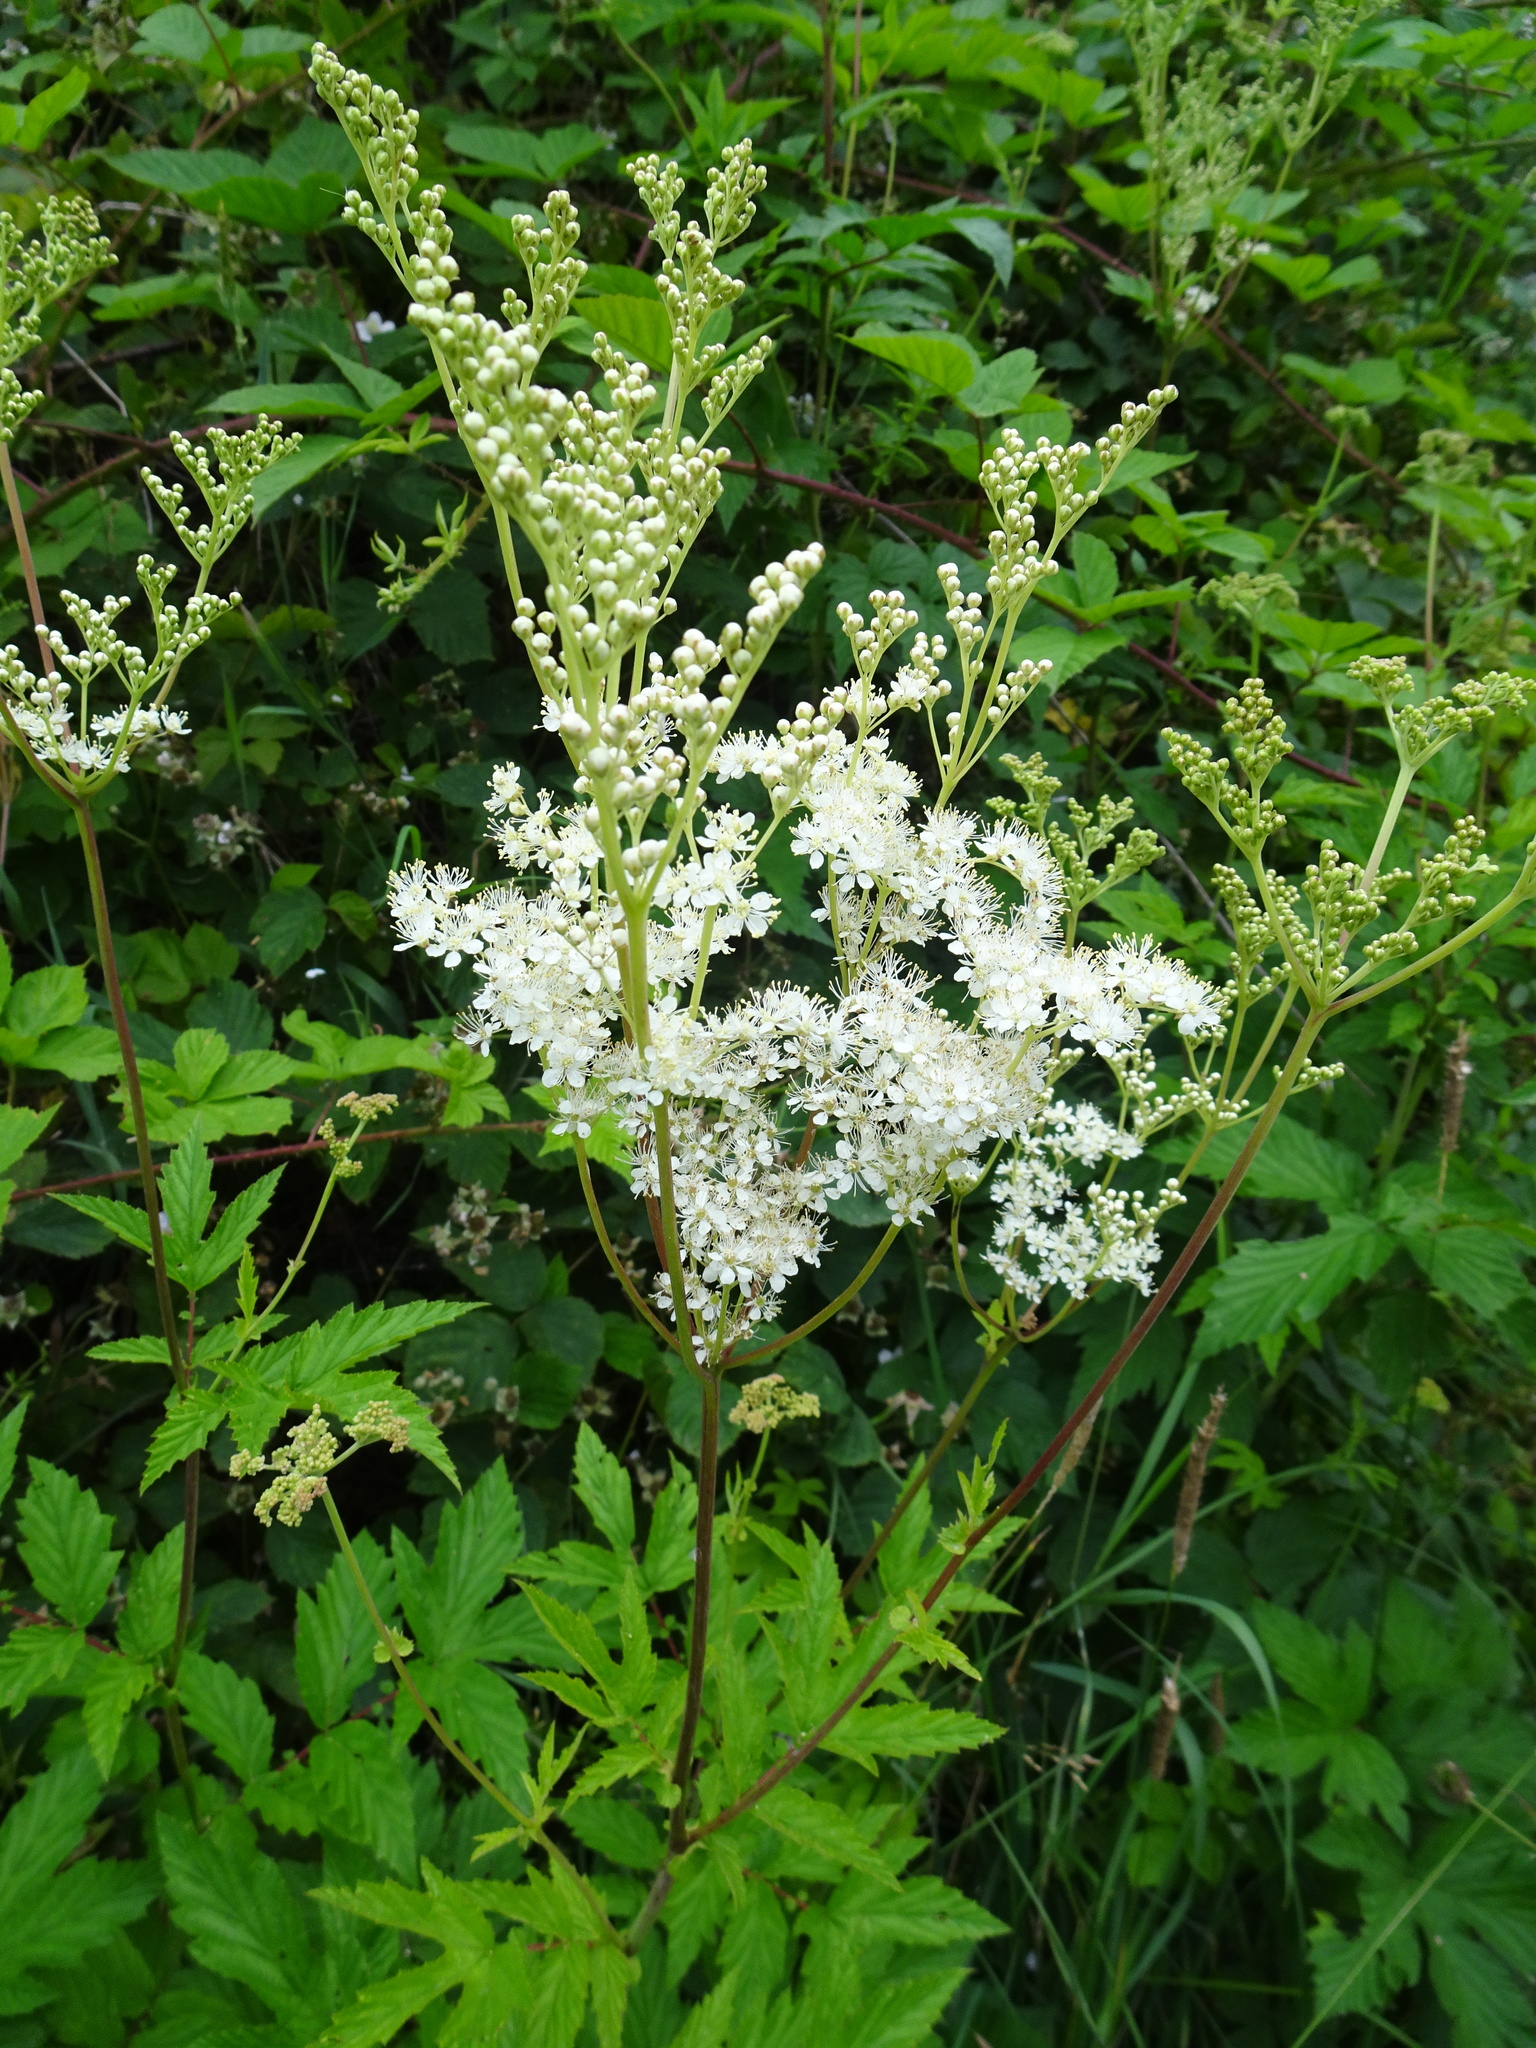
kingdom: Plantae
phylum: Tracheophyta
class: Magnoliopsida
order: Rosales
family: Rosaceae
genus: Filipendula
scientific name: Filipendula ulmaria
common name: Meadowsweet
